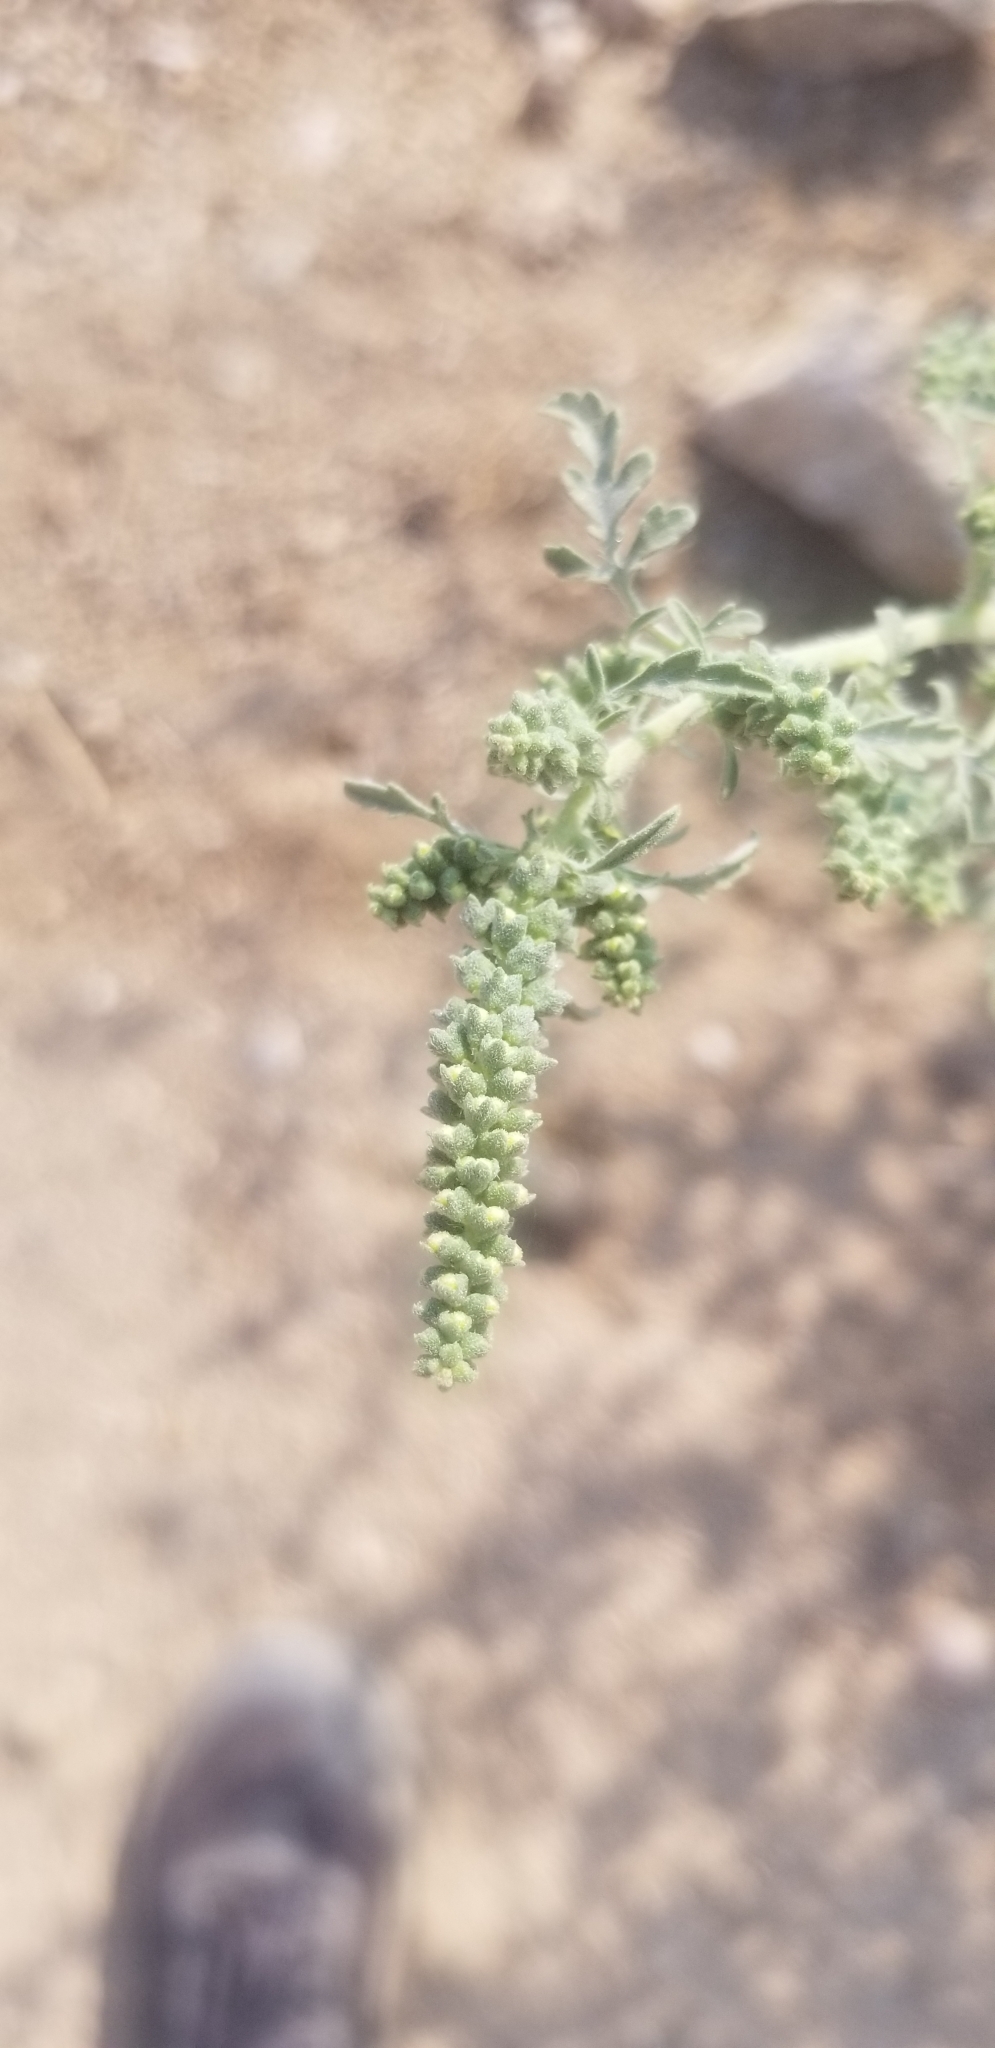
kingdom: Plantae
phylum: Tracheophyta
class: Magnoliopsida
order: Asterales
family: Asteraceae
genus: Ambrosia
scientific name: Ambrosia acanthicarpa
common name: Hooker's bur ragweed
